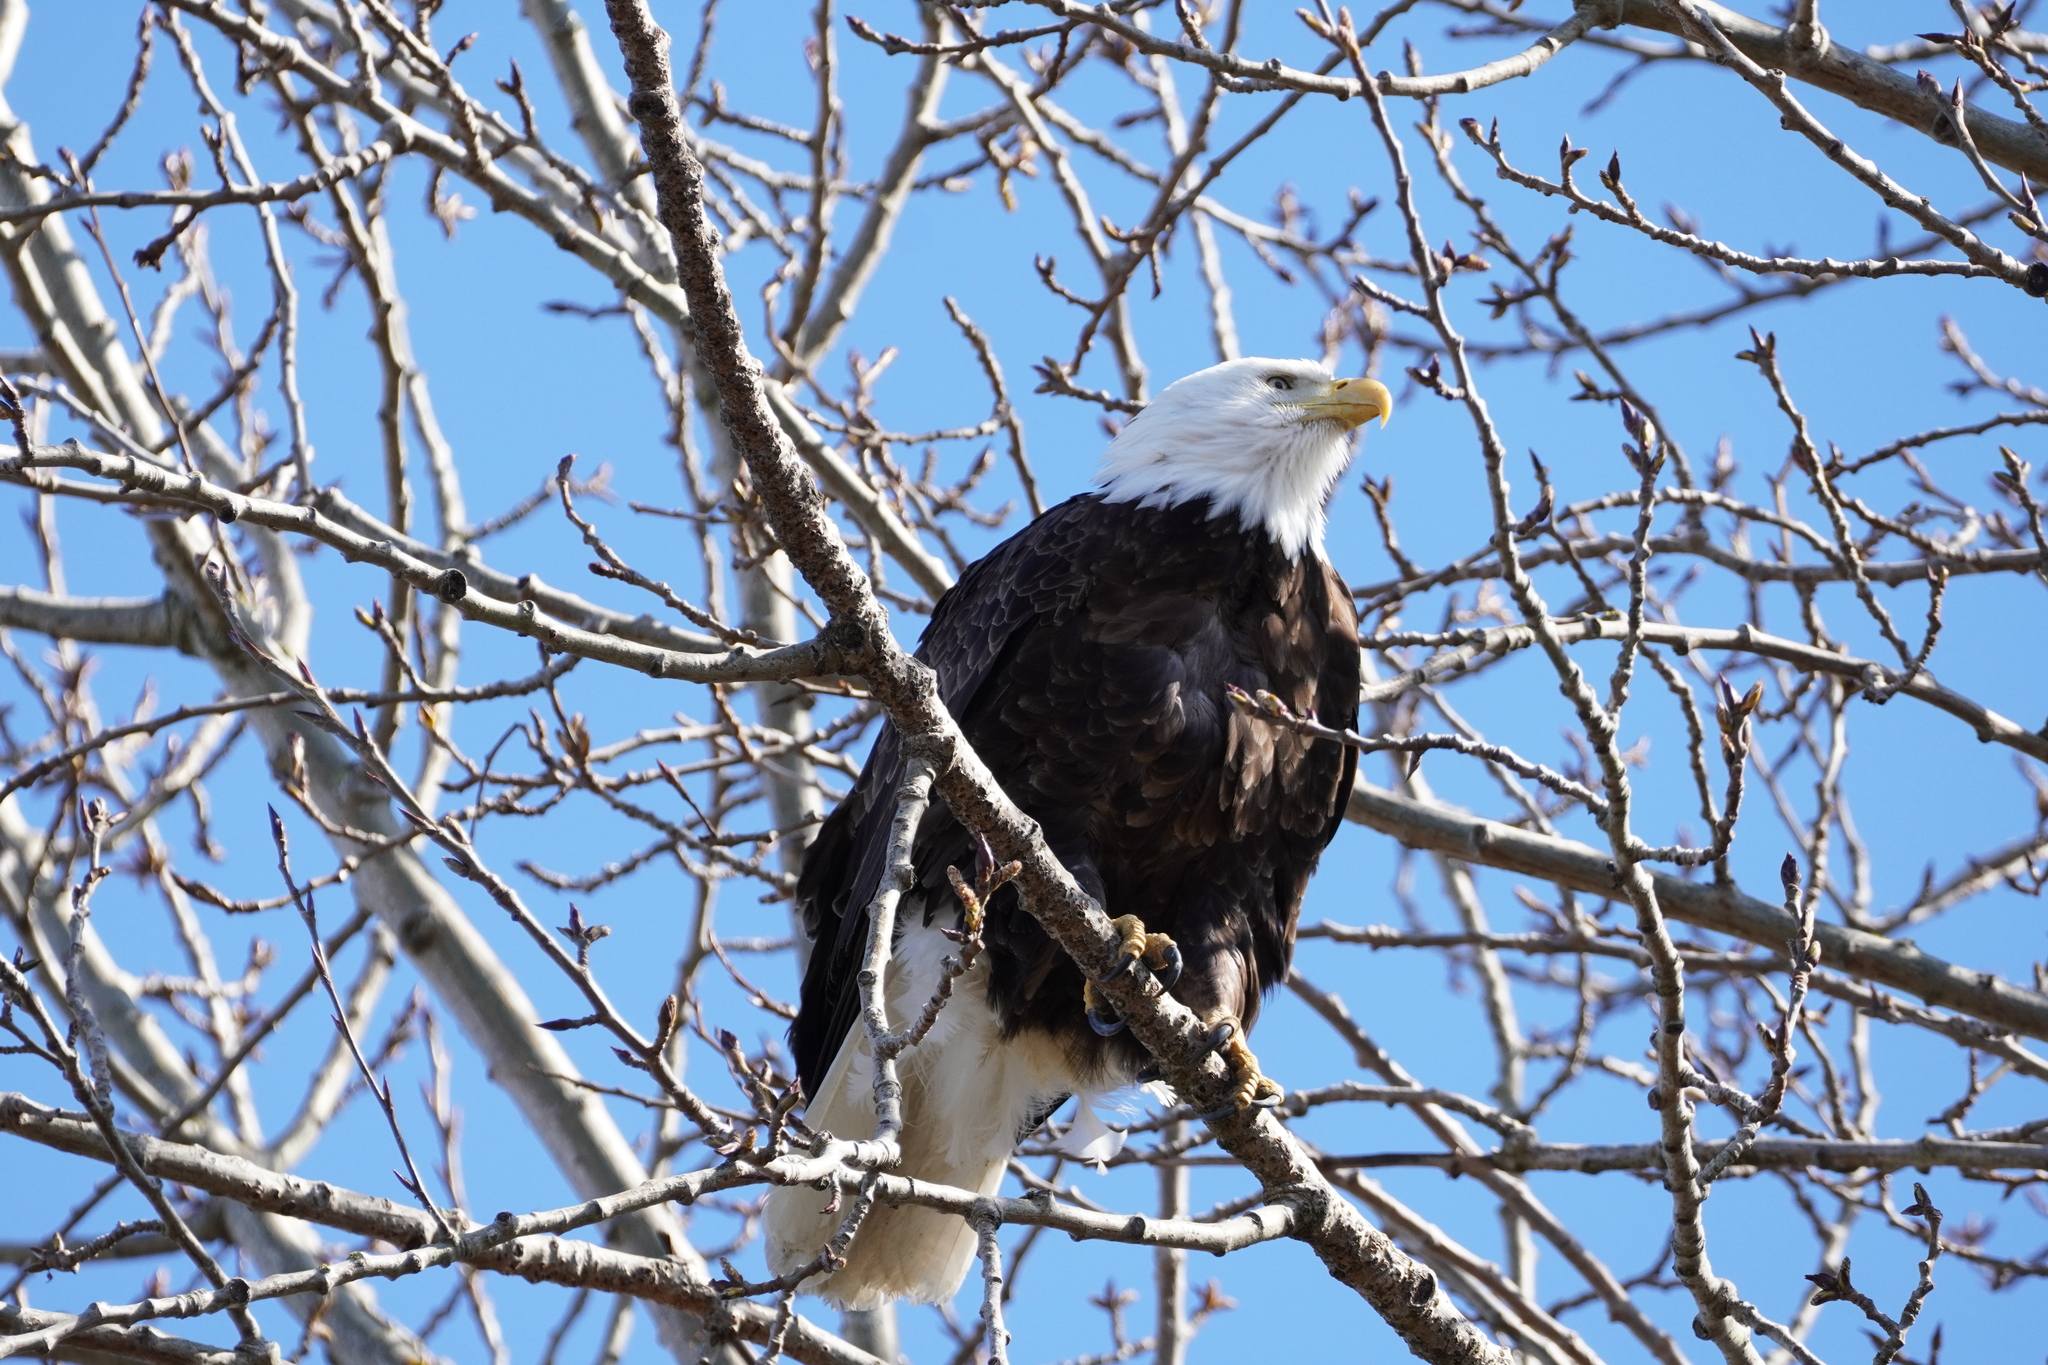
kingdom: Animalia
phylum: Chordata
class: Aves
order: Accipitriformes
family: Accipitridae
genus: Haliaeetus
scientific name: Haliaeetus leucocephalus
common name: Bald eagle
